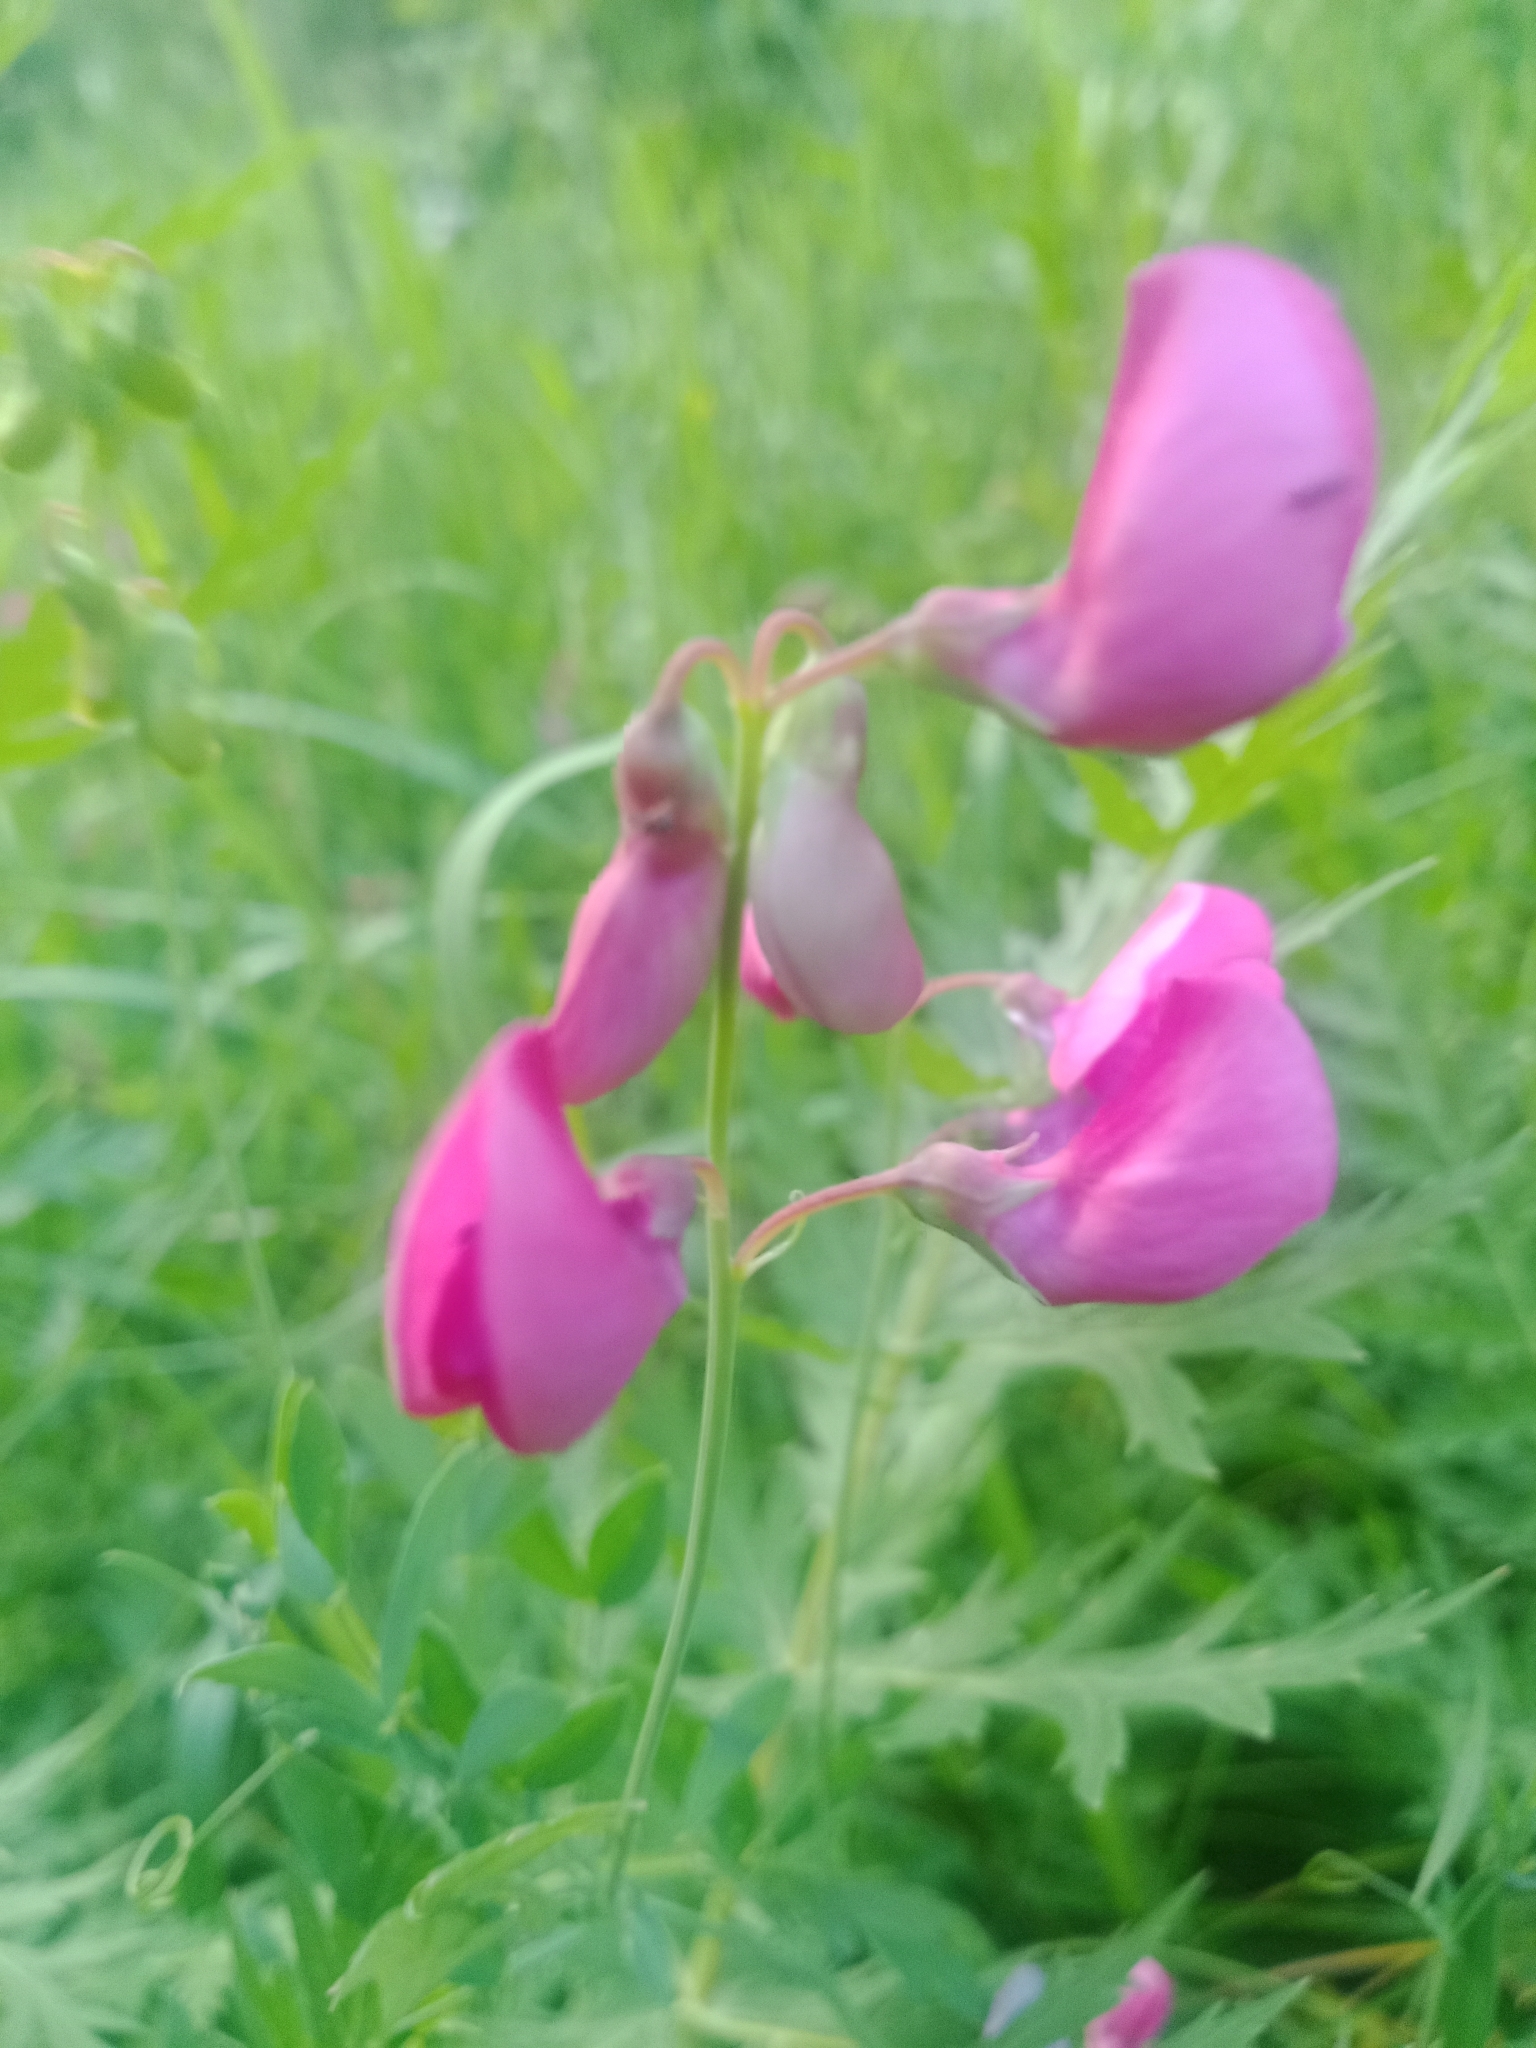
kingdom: Plantae
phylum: Tracheophyta
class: Magnoliopsida
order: Fabales
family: Fabaceae
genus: Lathyrus
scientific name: Lathyrus tuberosus
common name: Tuberous pea
